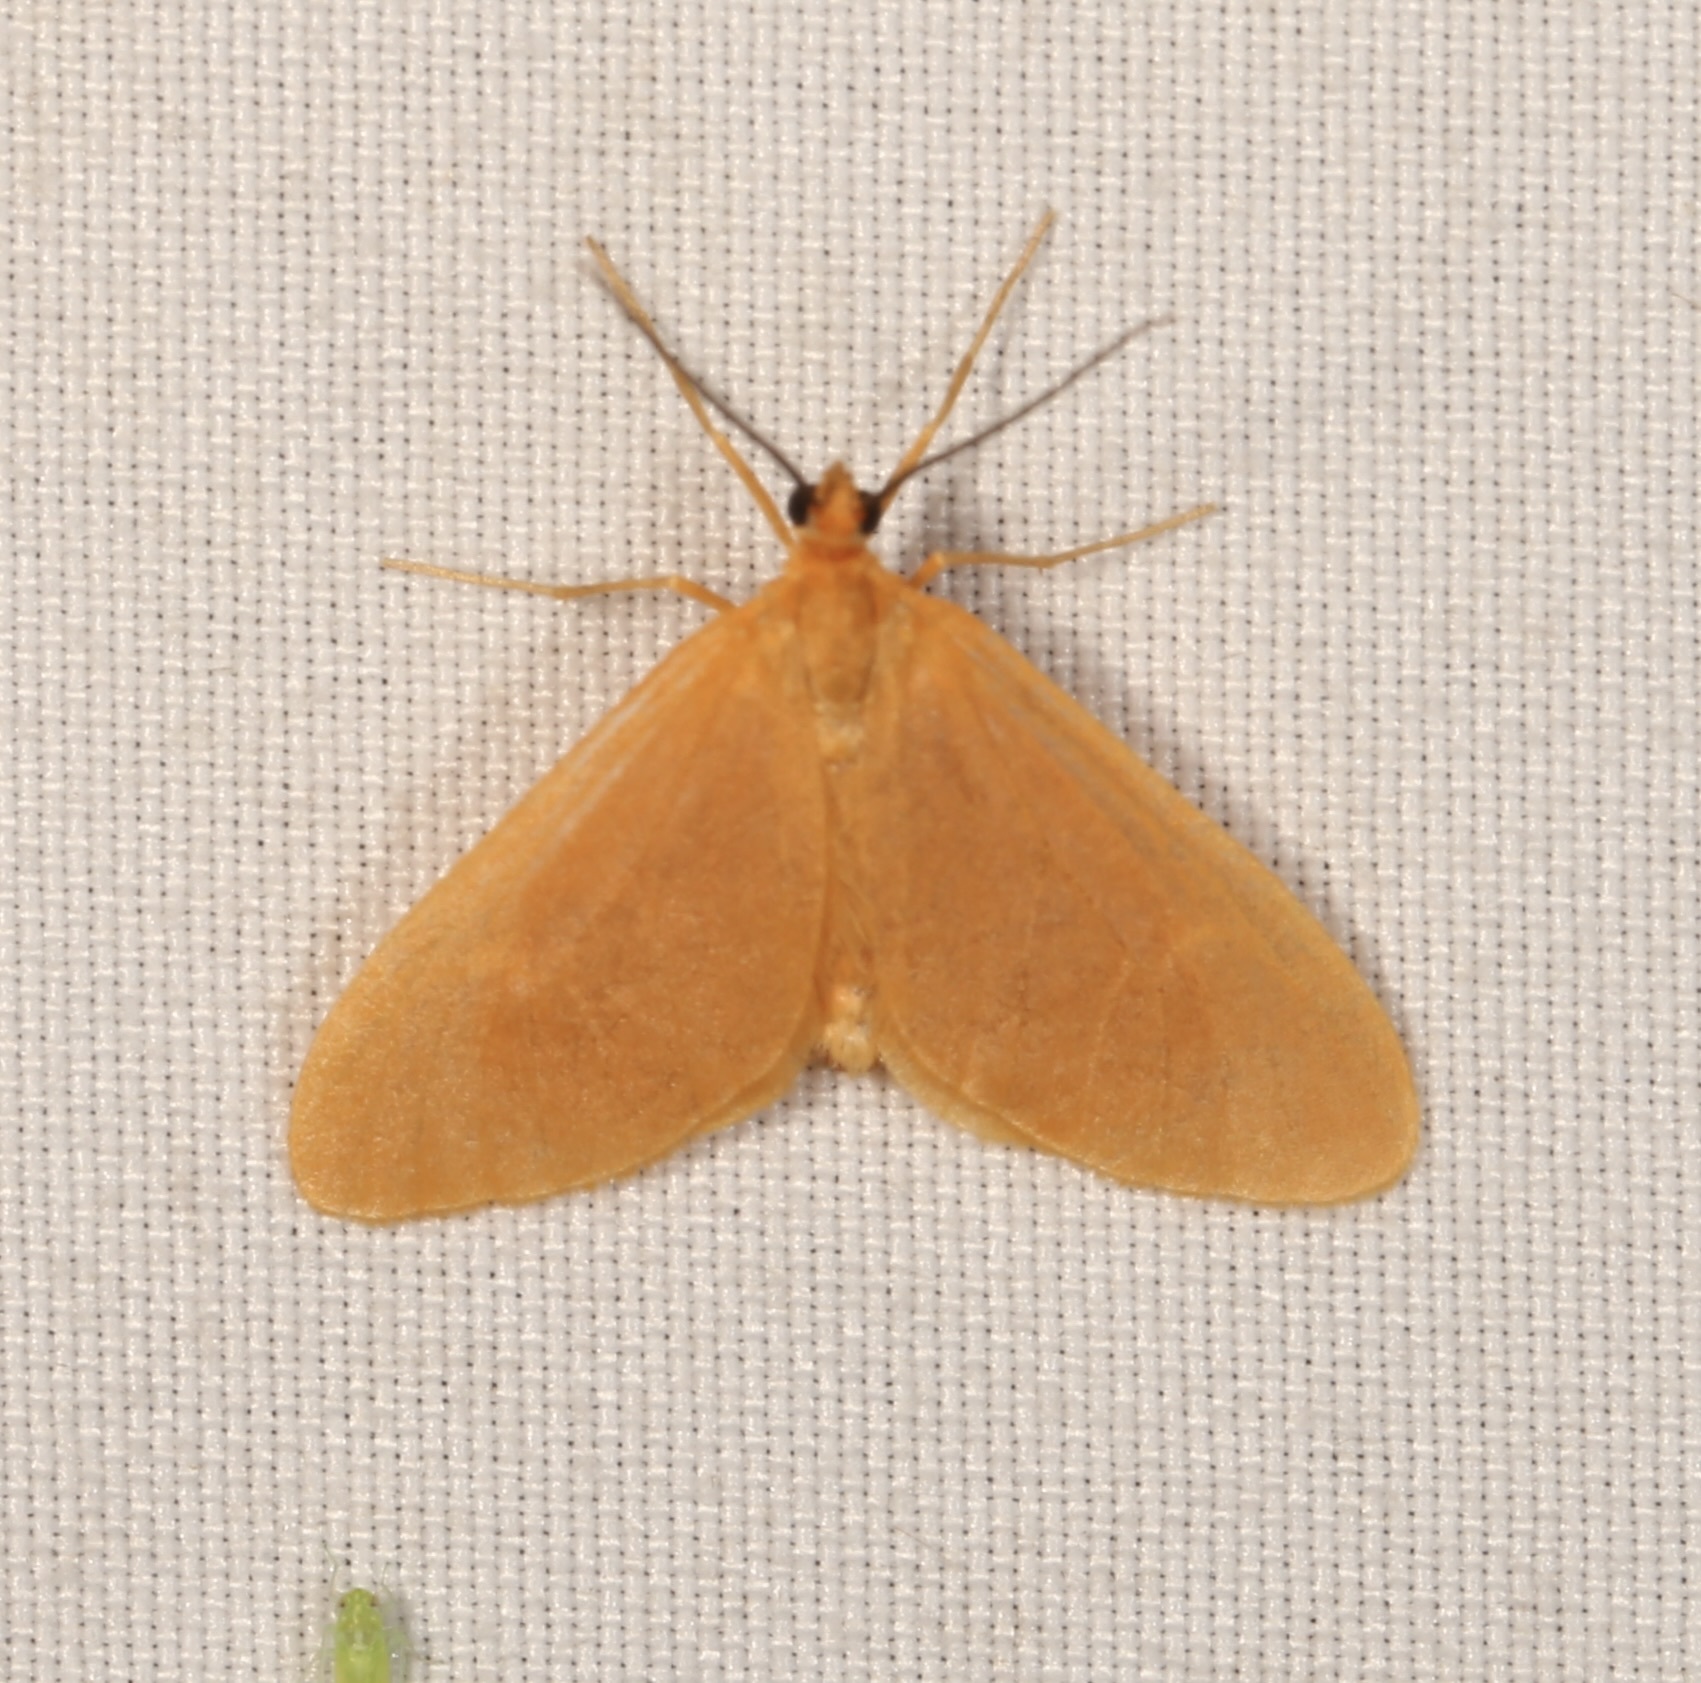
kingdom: Animalia
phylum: Arthropoda
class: Insecta
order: Lepidoptera
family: Geometridae
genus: Eubaphe
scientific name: Eubaphe unicolor
